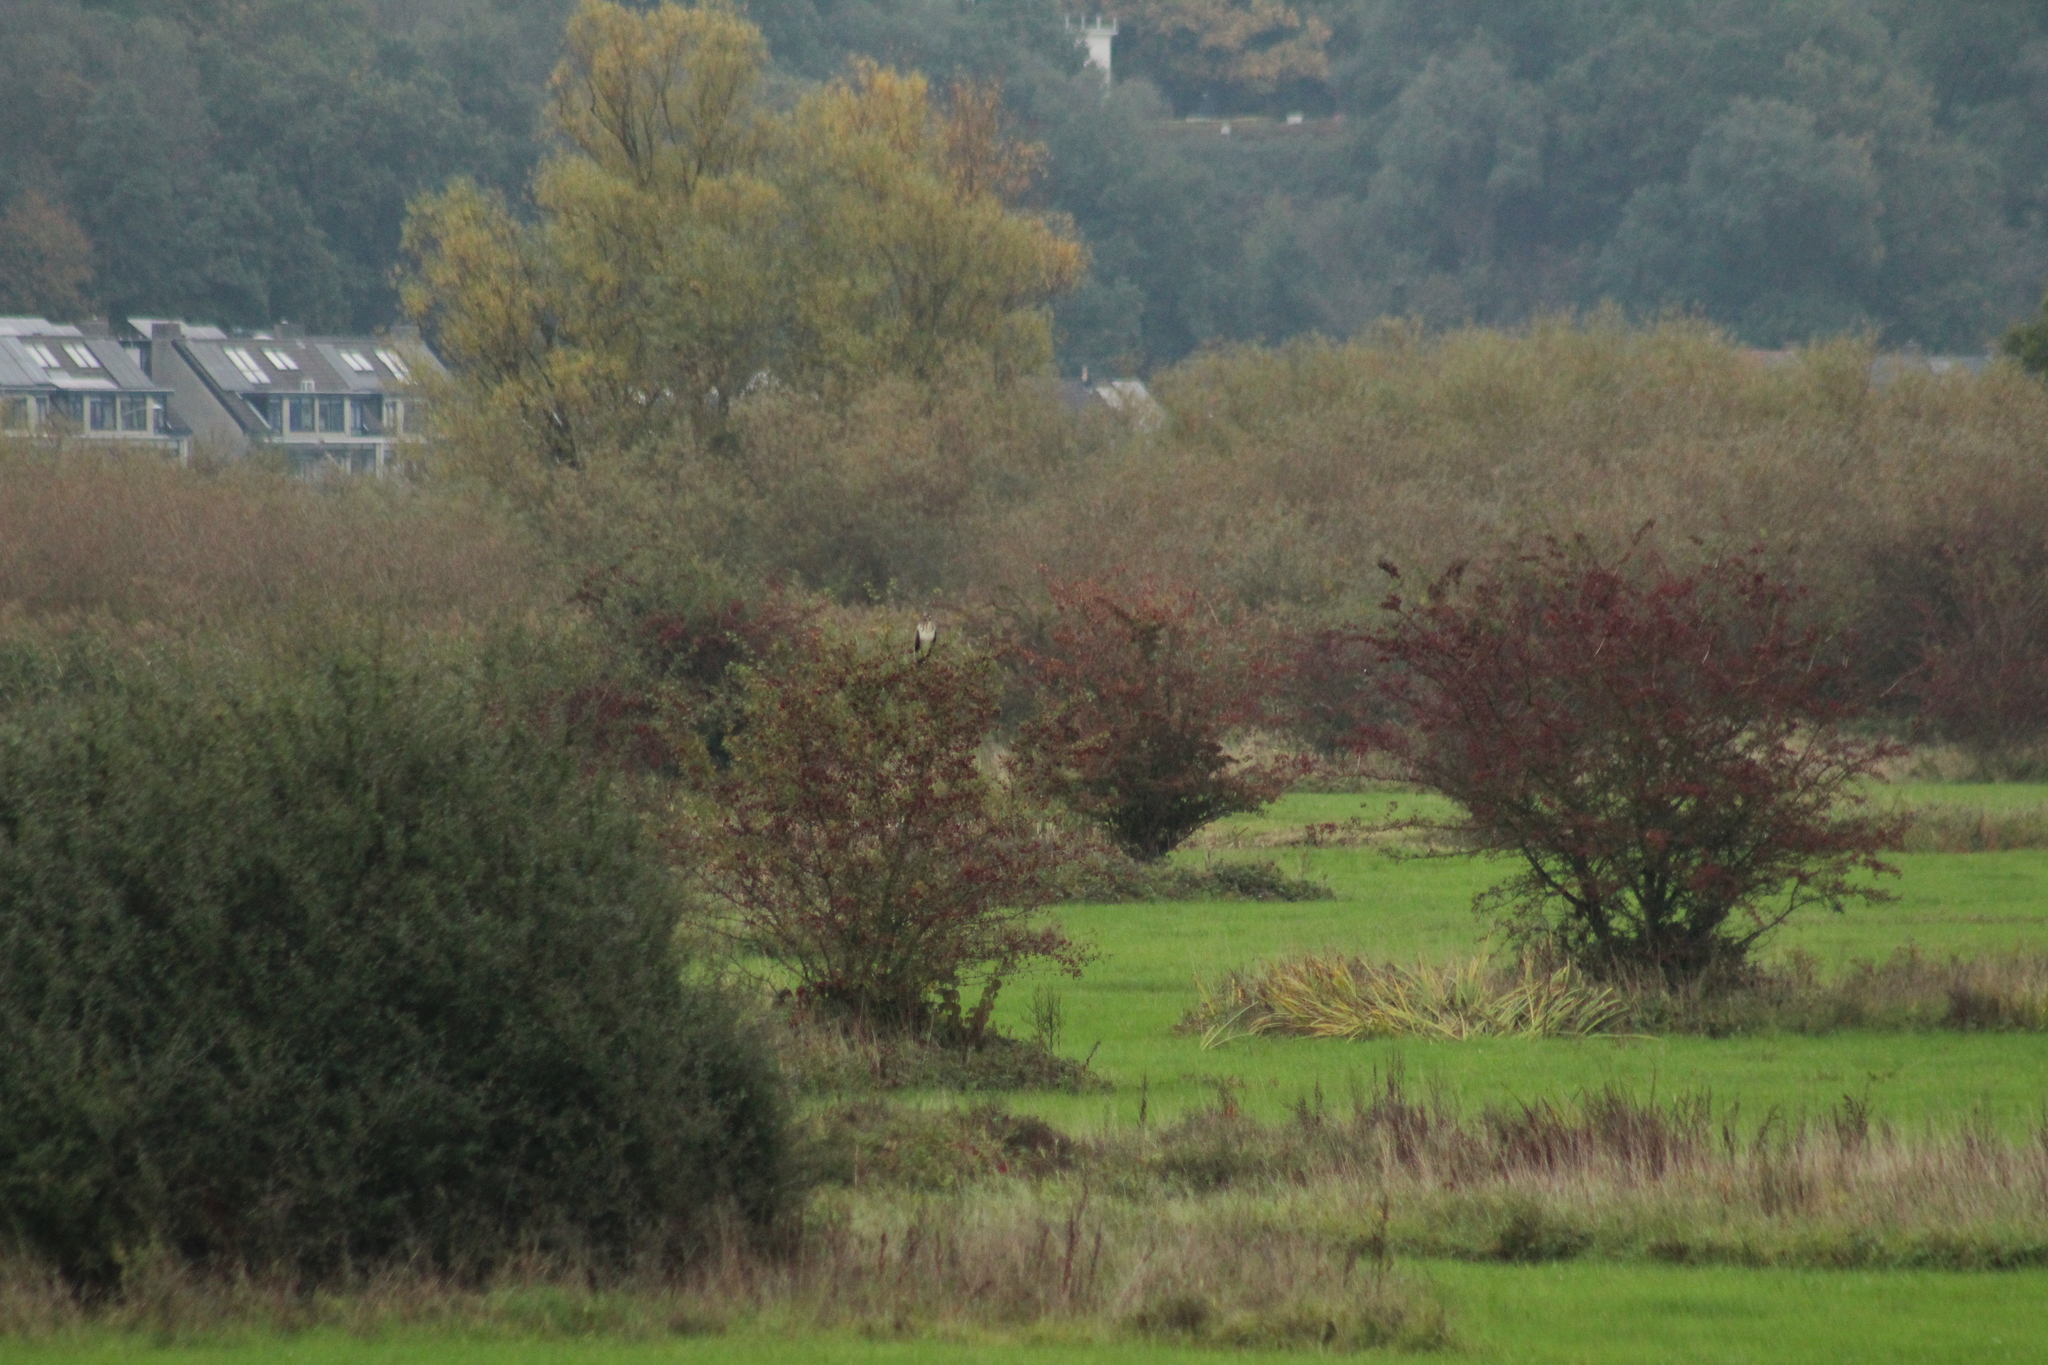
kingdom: Animalia
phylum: Chordata
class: Aves
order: Accipitriformes
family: Accipitridae
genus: Buteo
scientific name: Buteo buteo
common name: Common buzzard
